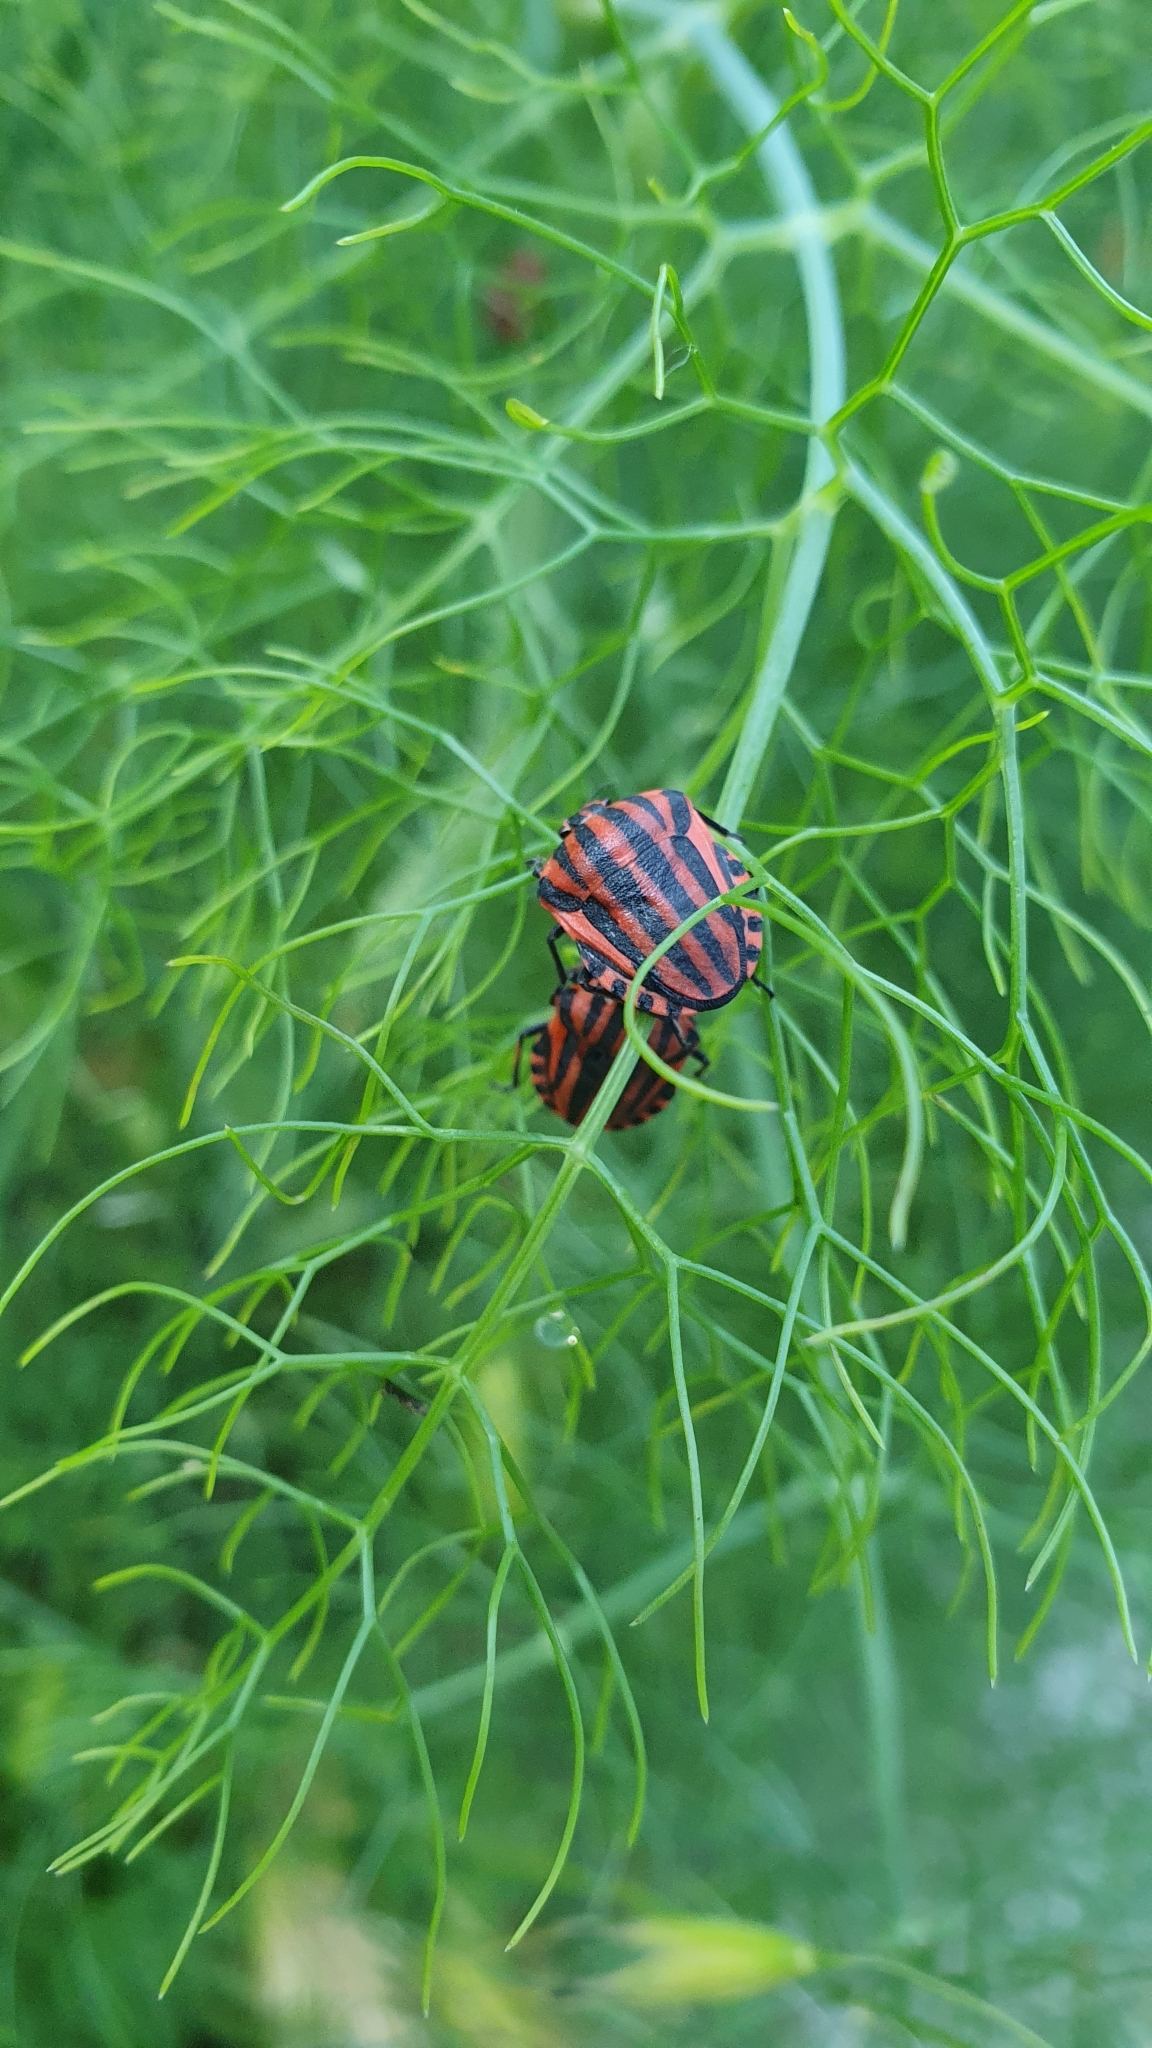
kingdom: Animalia
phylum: Arthropoda
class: Insecta
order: Hemiptera
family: Pentatomidae
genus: Graphosoma
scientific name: Graphosoma italicum
